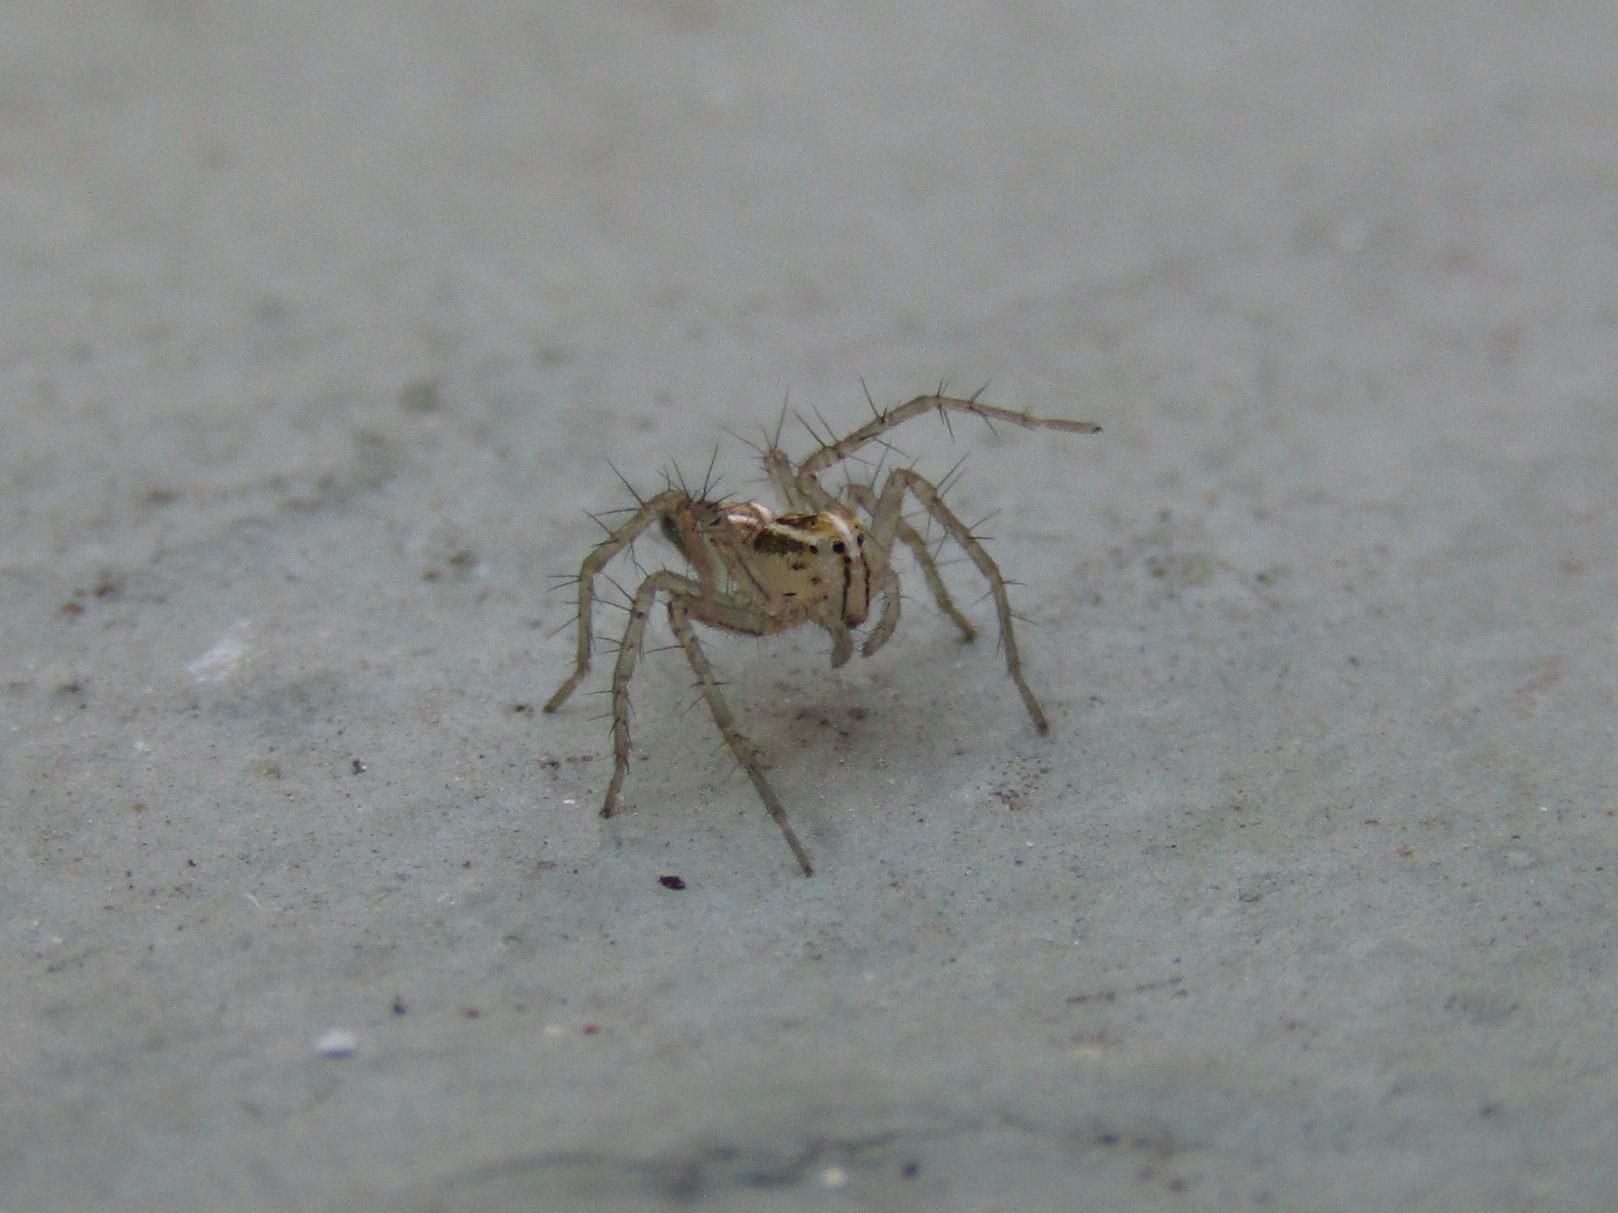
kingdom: Animalia
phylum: Arthropoda
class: Arachnida
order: Araneae
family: Oxyopidae
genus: Oxyopes
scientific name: Oxyopes salticus
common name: Lynx spiders
